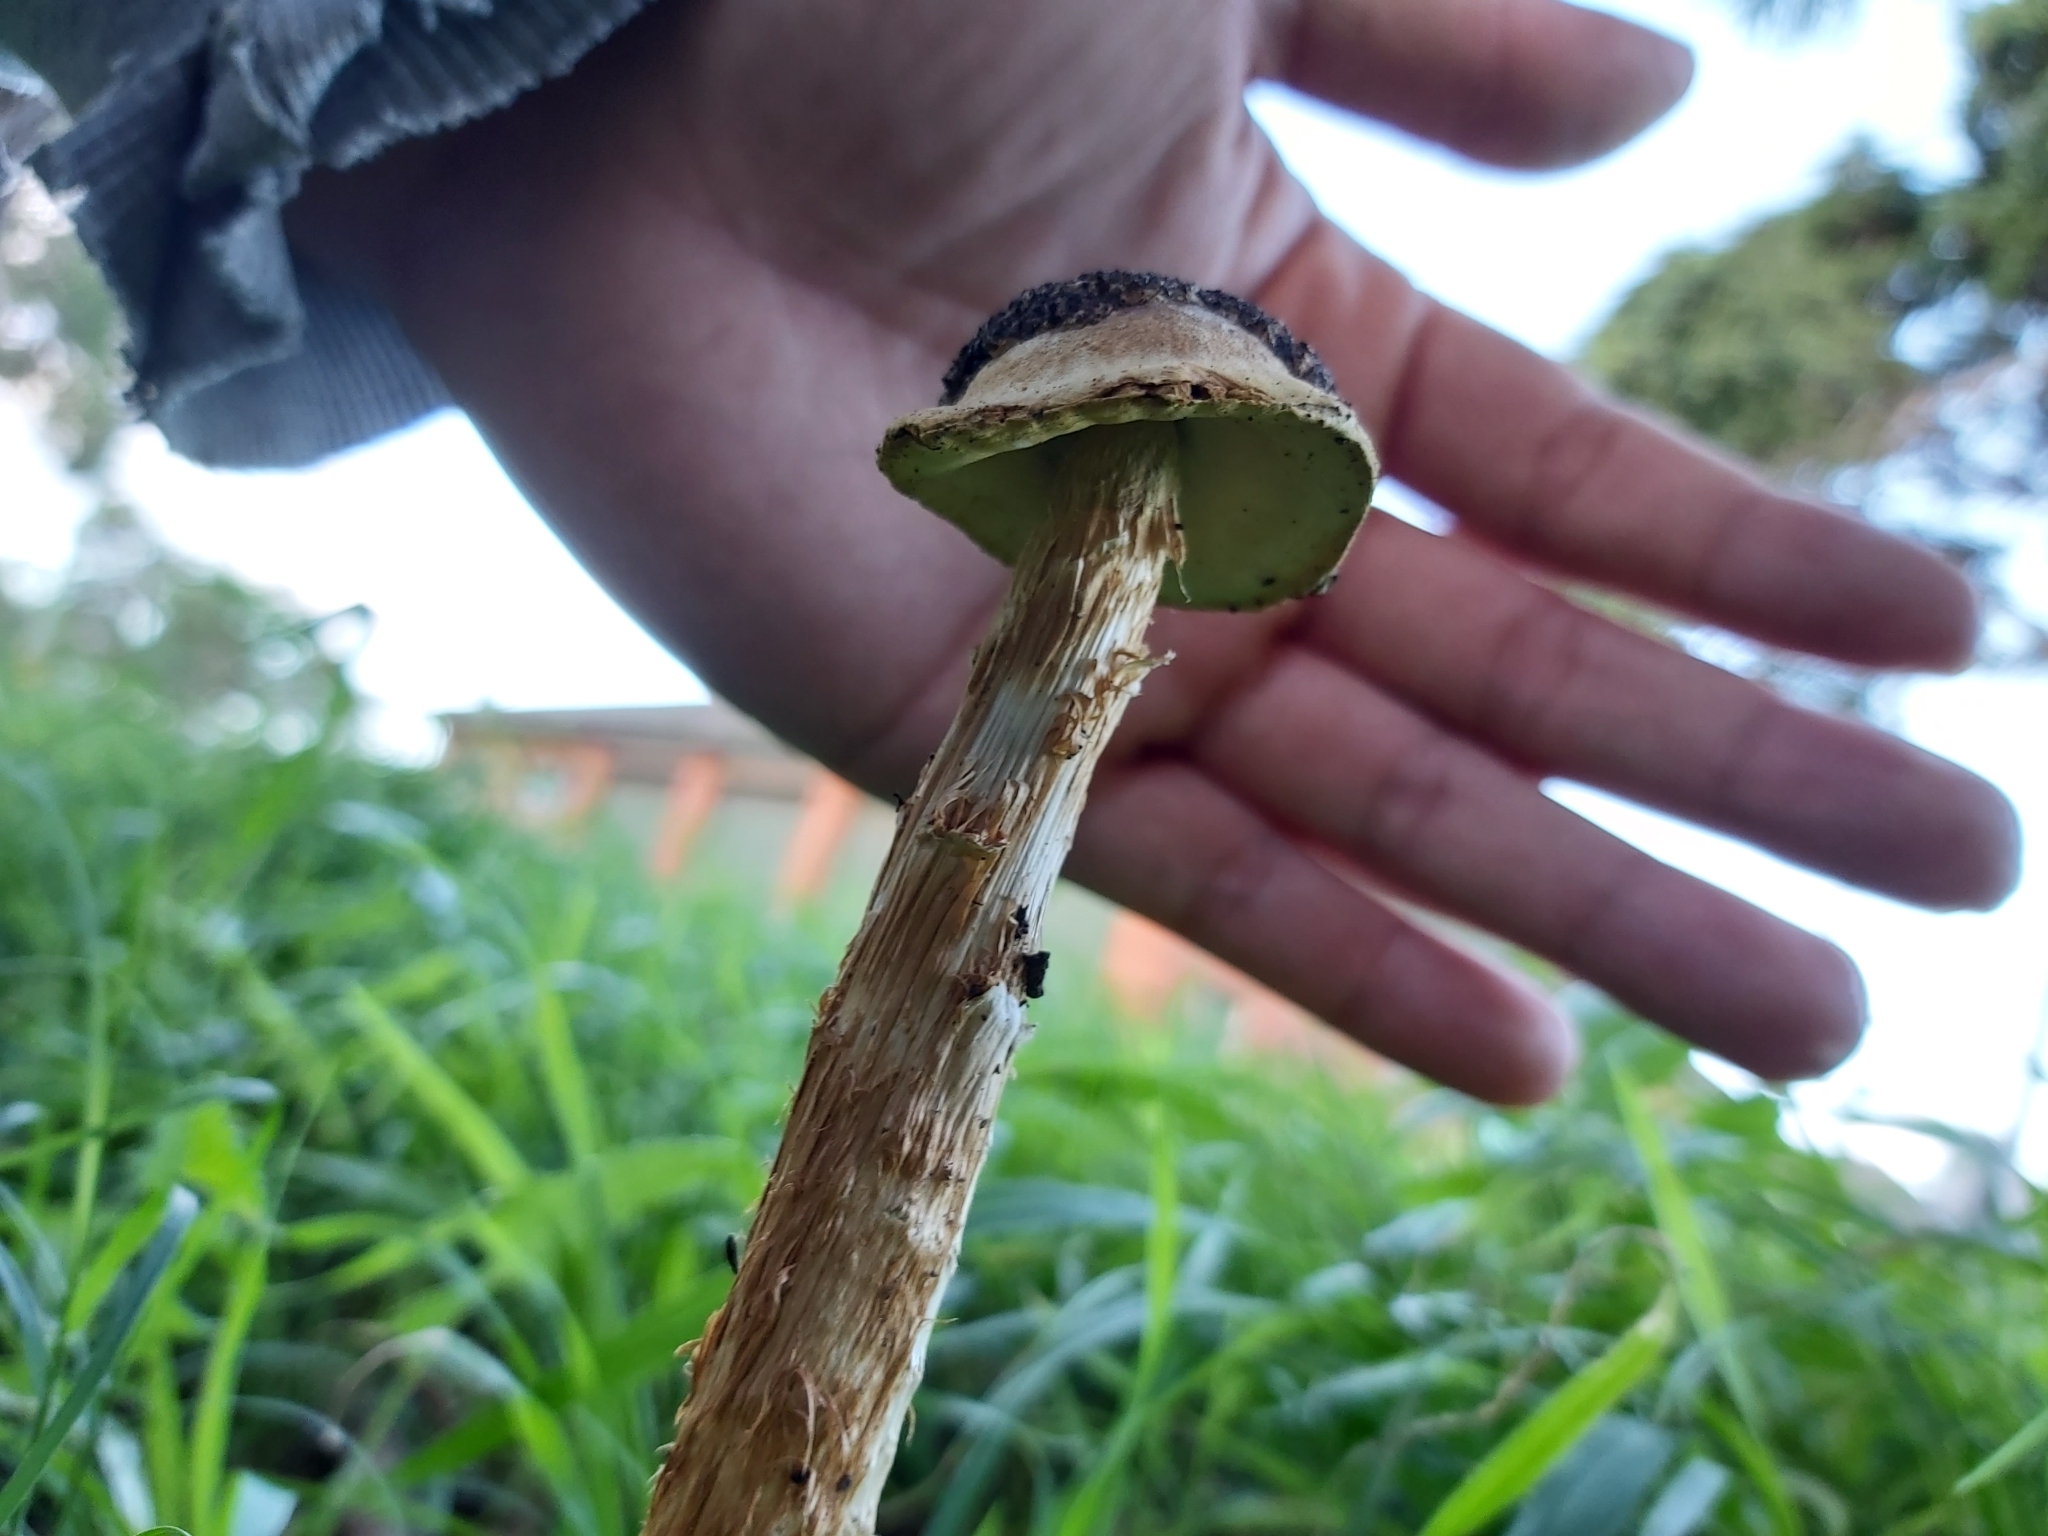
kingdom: Fungi
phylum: Basidiomycota
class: Agaricomycetes
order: Agaricales
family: Agaricaceae
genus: Battarrea
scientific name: Battarrea phalloides
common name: Sandy stiltball
